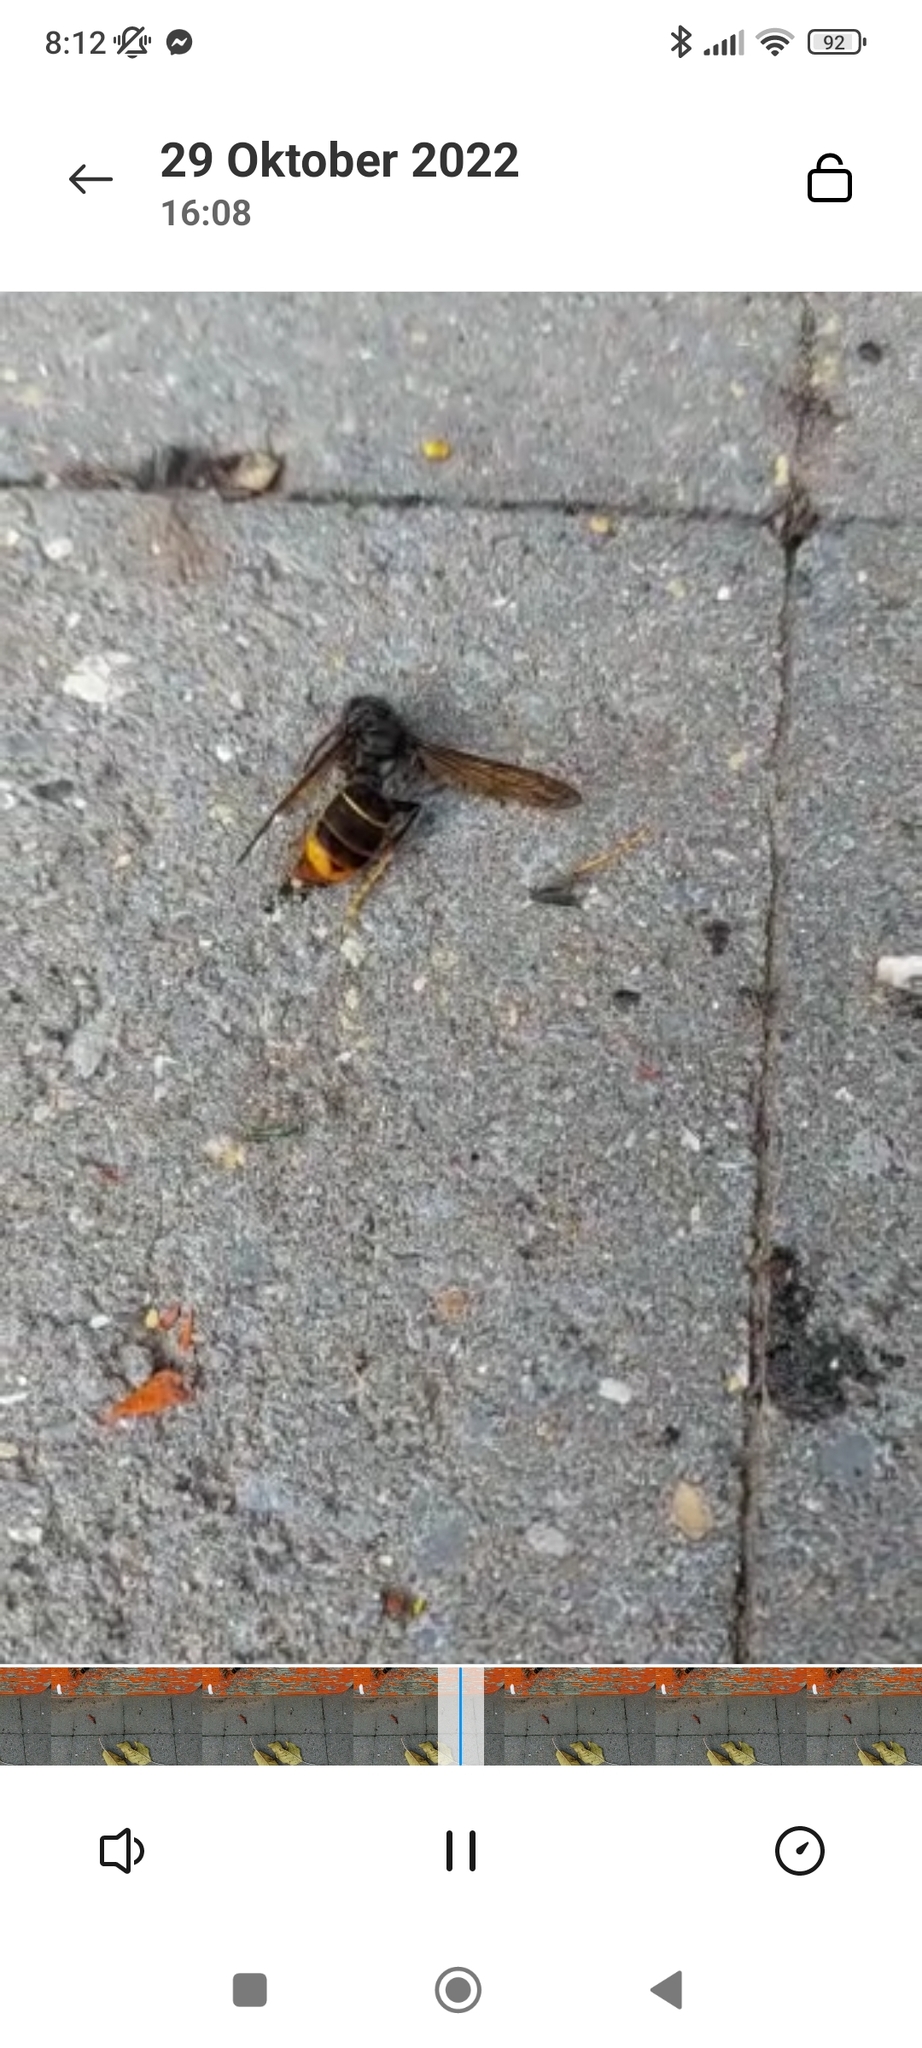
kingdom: Animalia
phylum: Arthropoda
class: Insecta
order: Hymenoptera
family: Vespidae
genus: Vespa
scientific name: Vespa velutina
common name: Asian hornet
